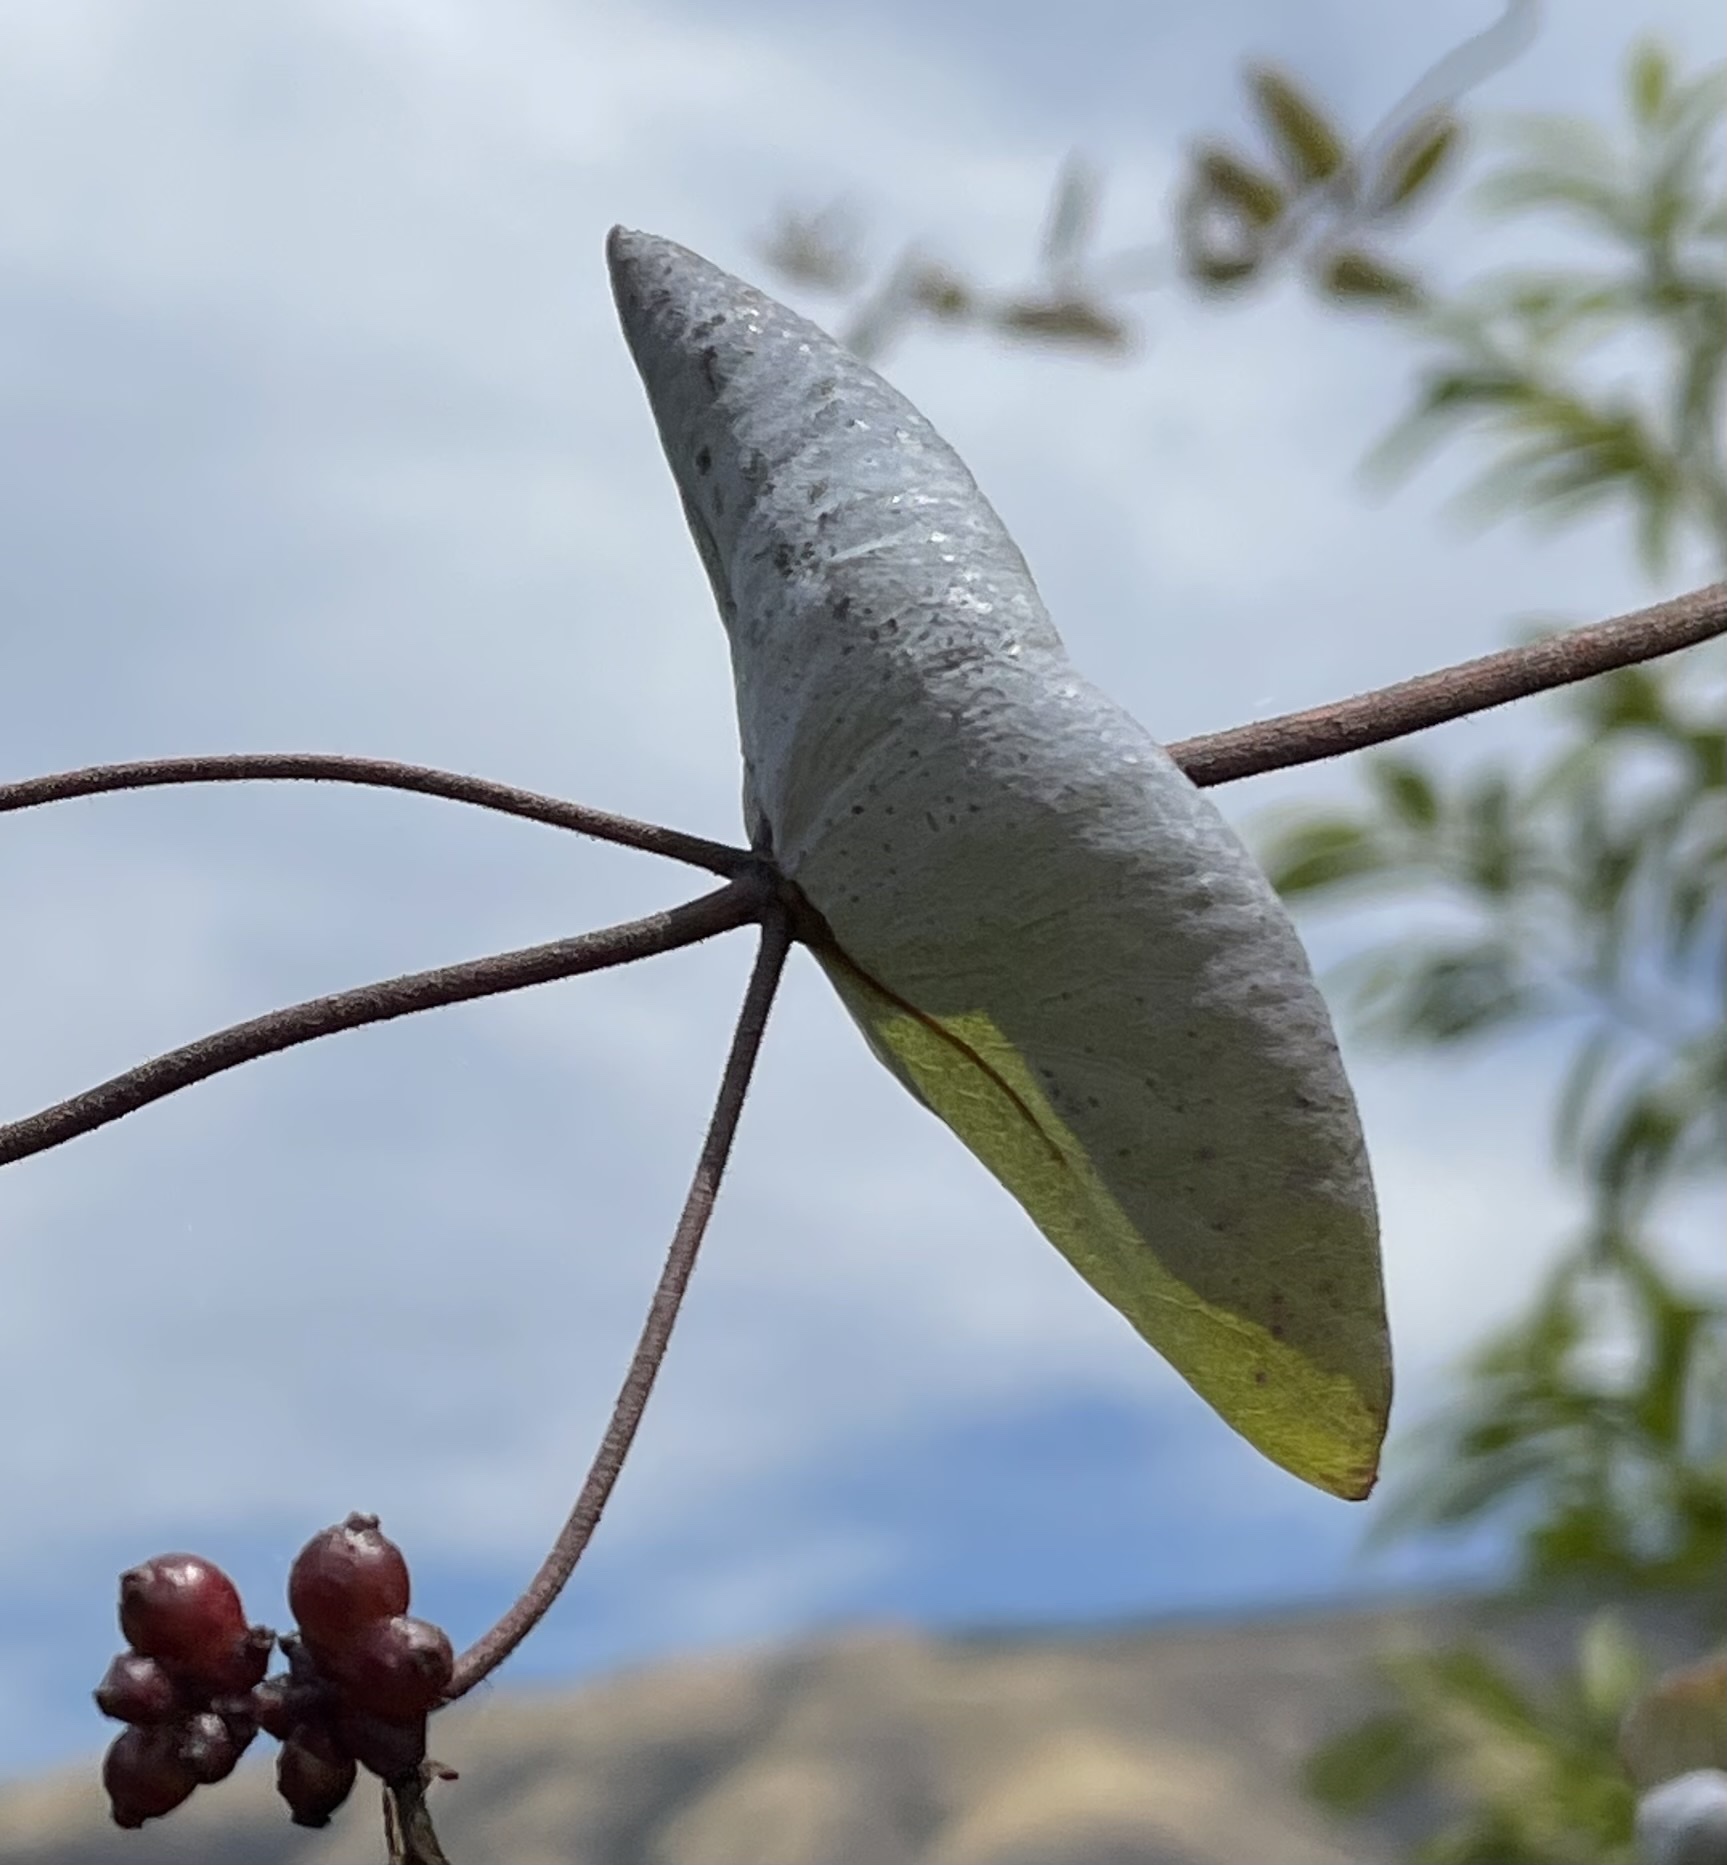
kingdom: Plantae
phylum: Tracheophyta
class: Magnoliopsida
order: Dipsacales
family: Caprifoliaceae
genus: Lonicera
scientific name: Lonicera hispidula
